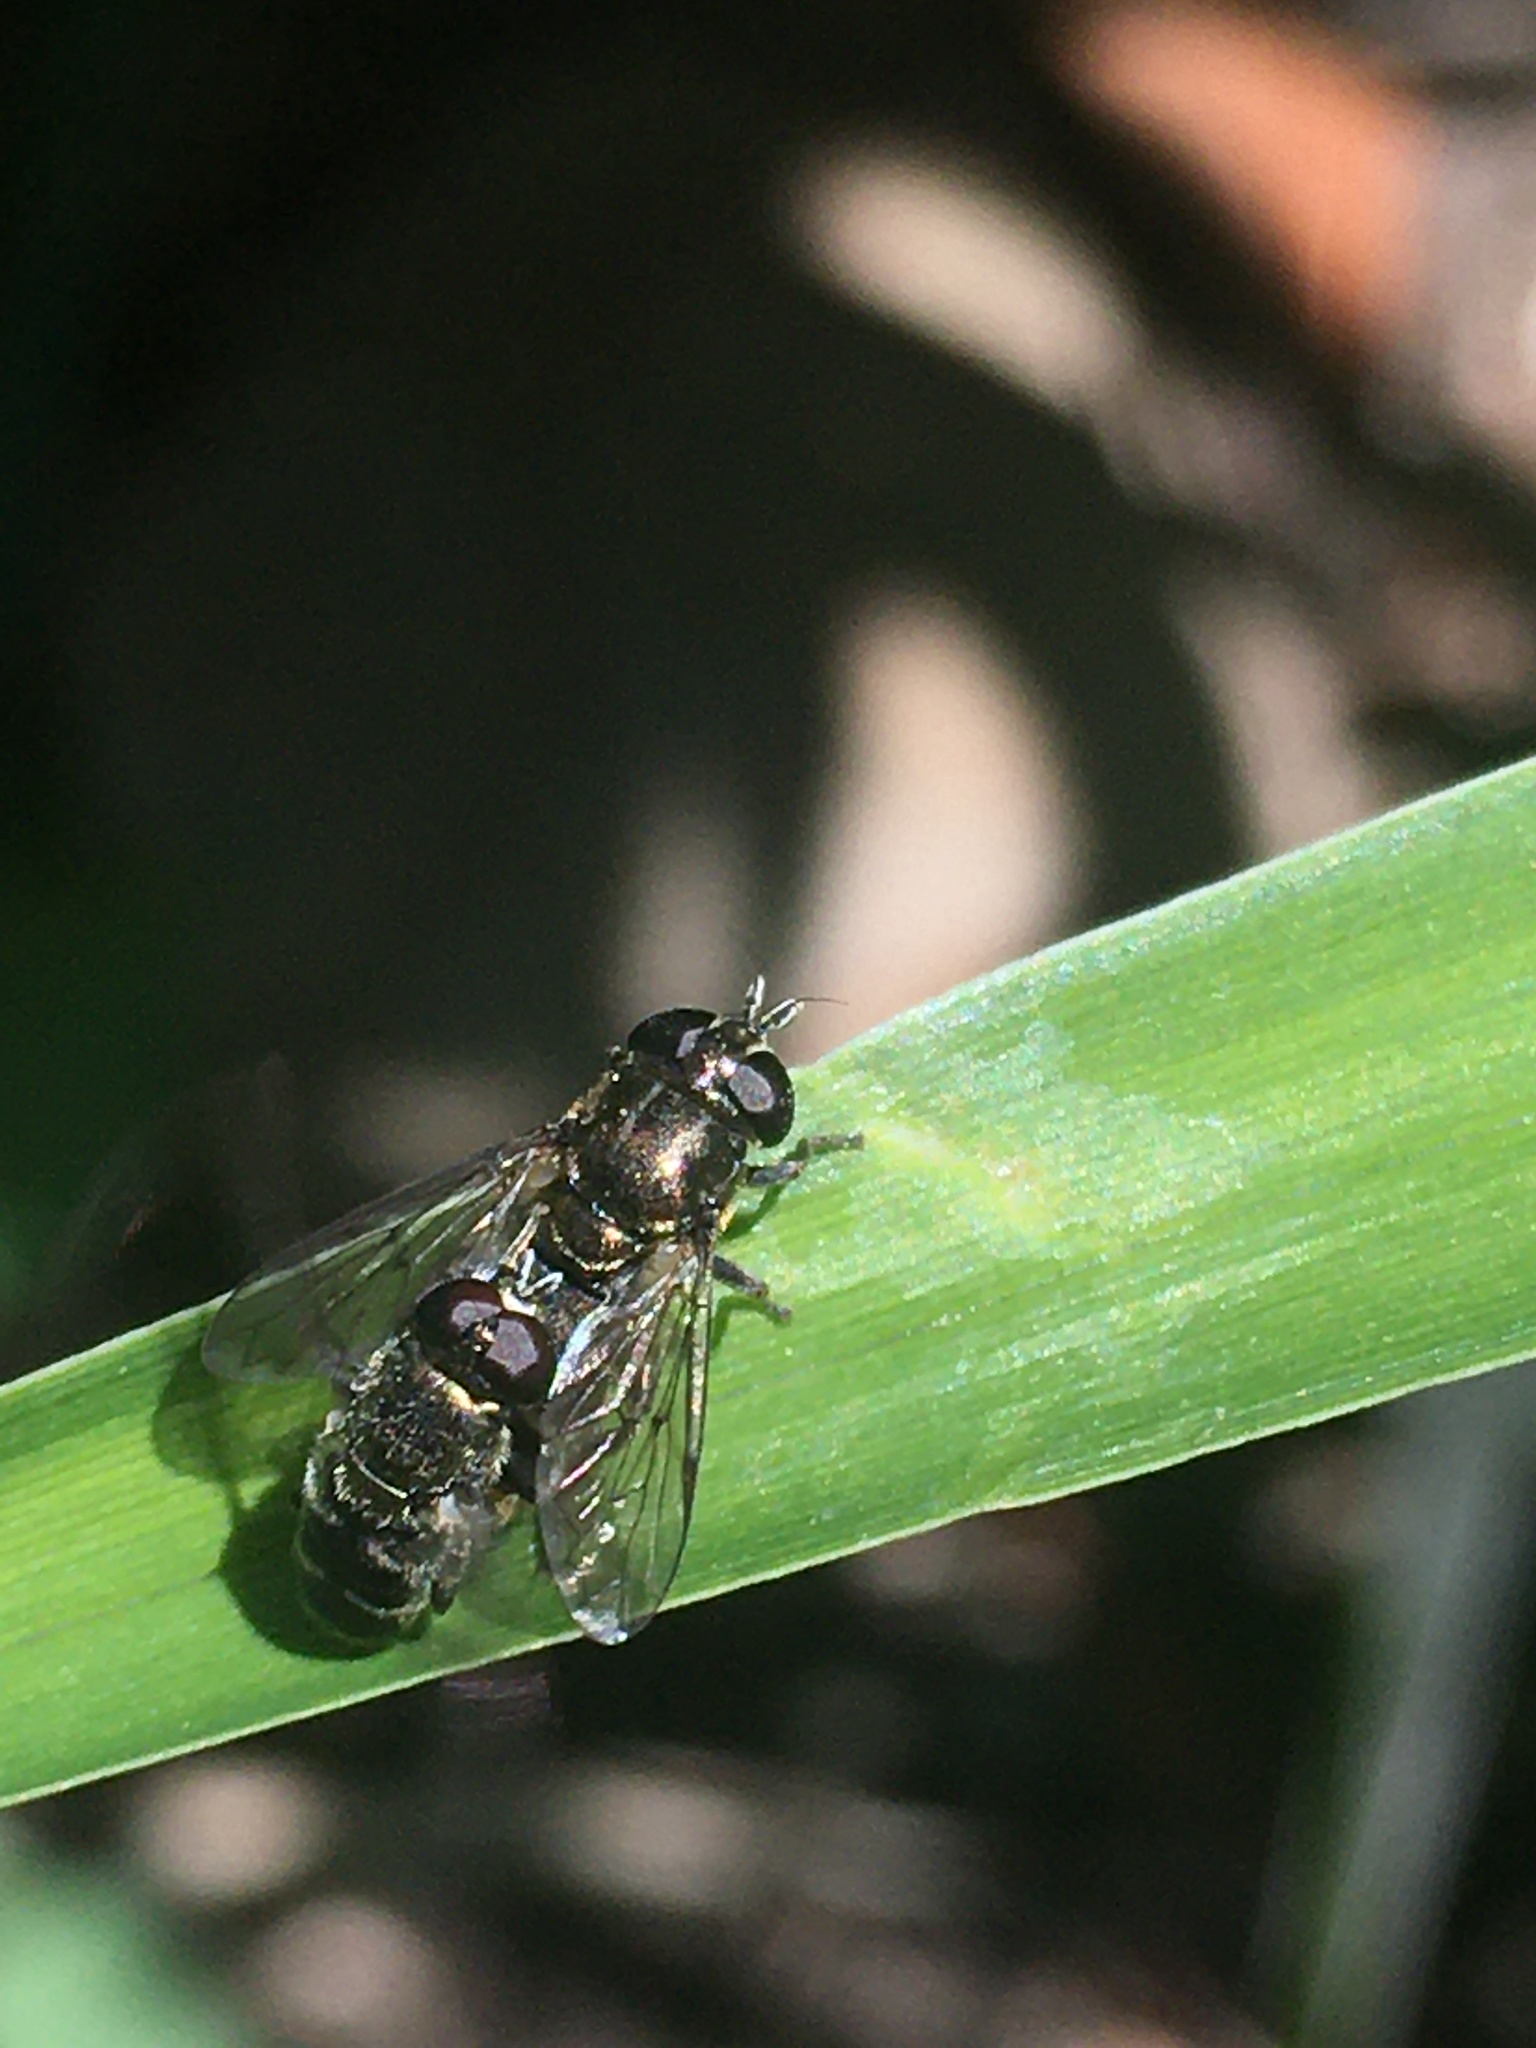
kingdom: Animalia
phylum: Arthropoda
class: Insecta
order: Diptera
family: Syrphidae
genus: Eumerus
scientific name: Eumerus
